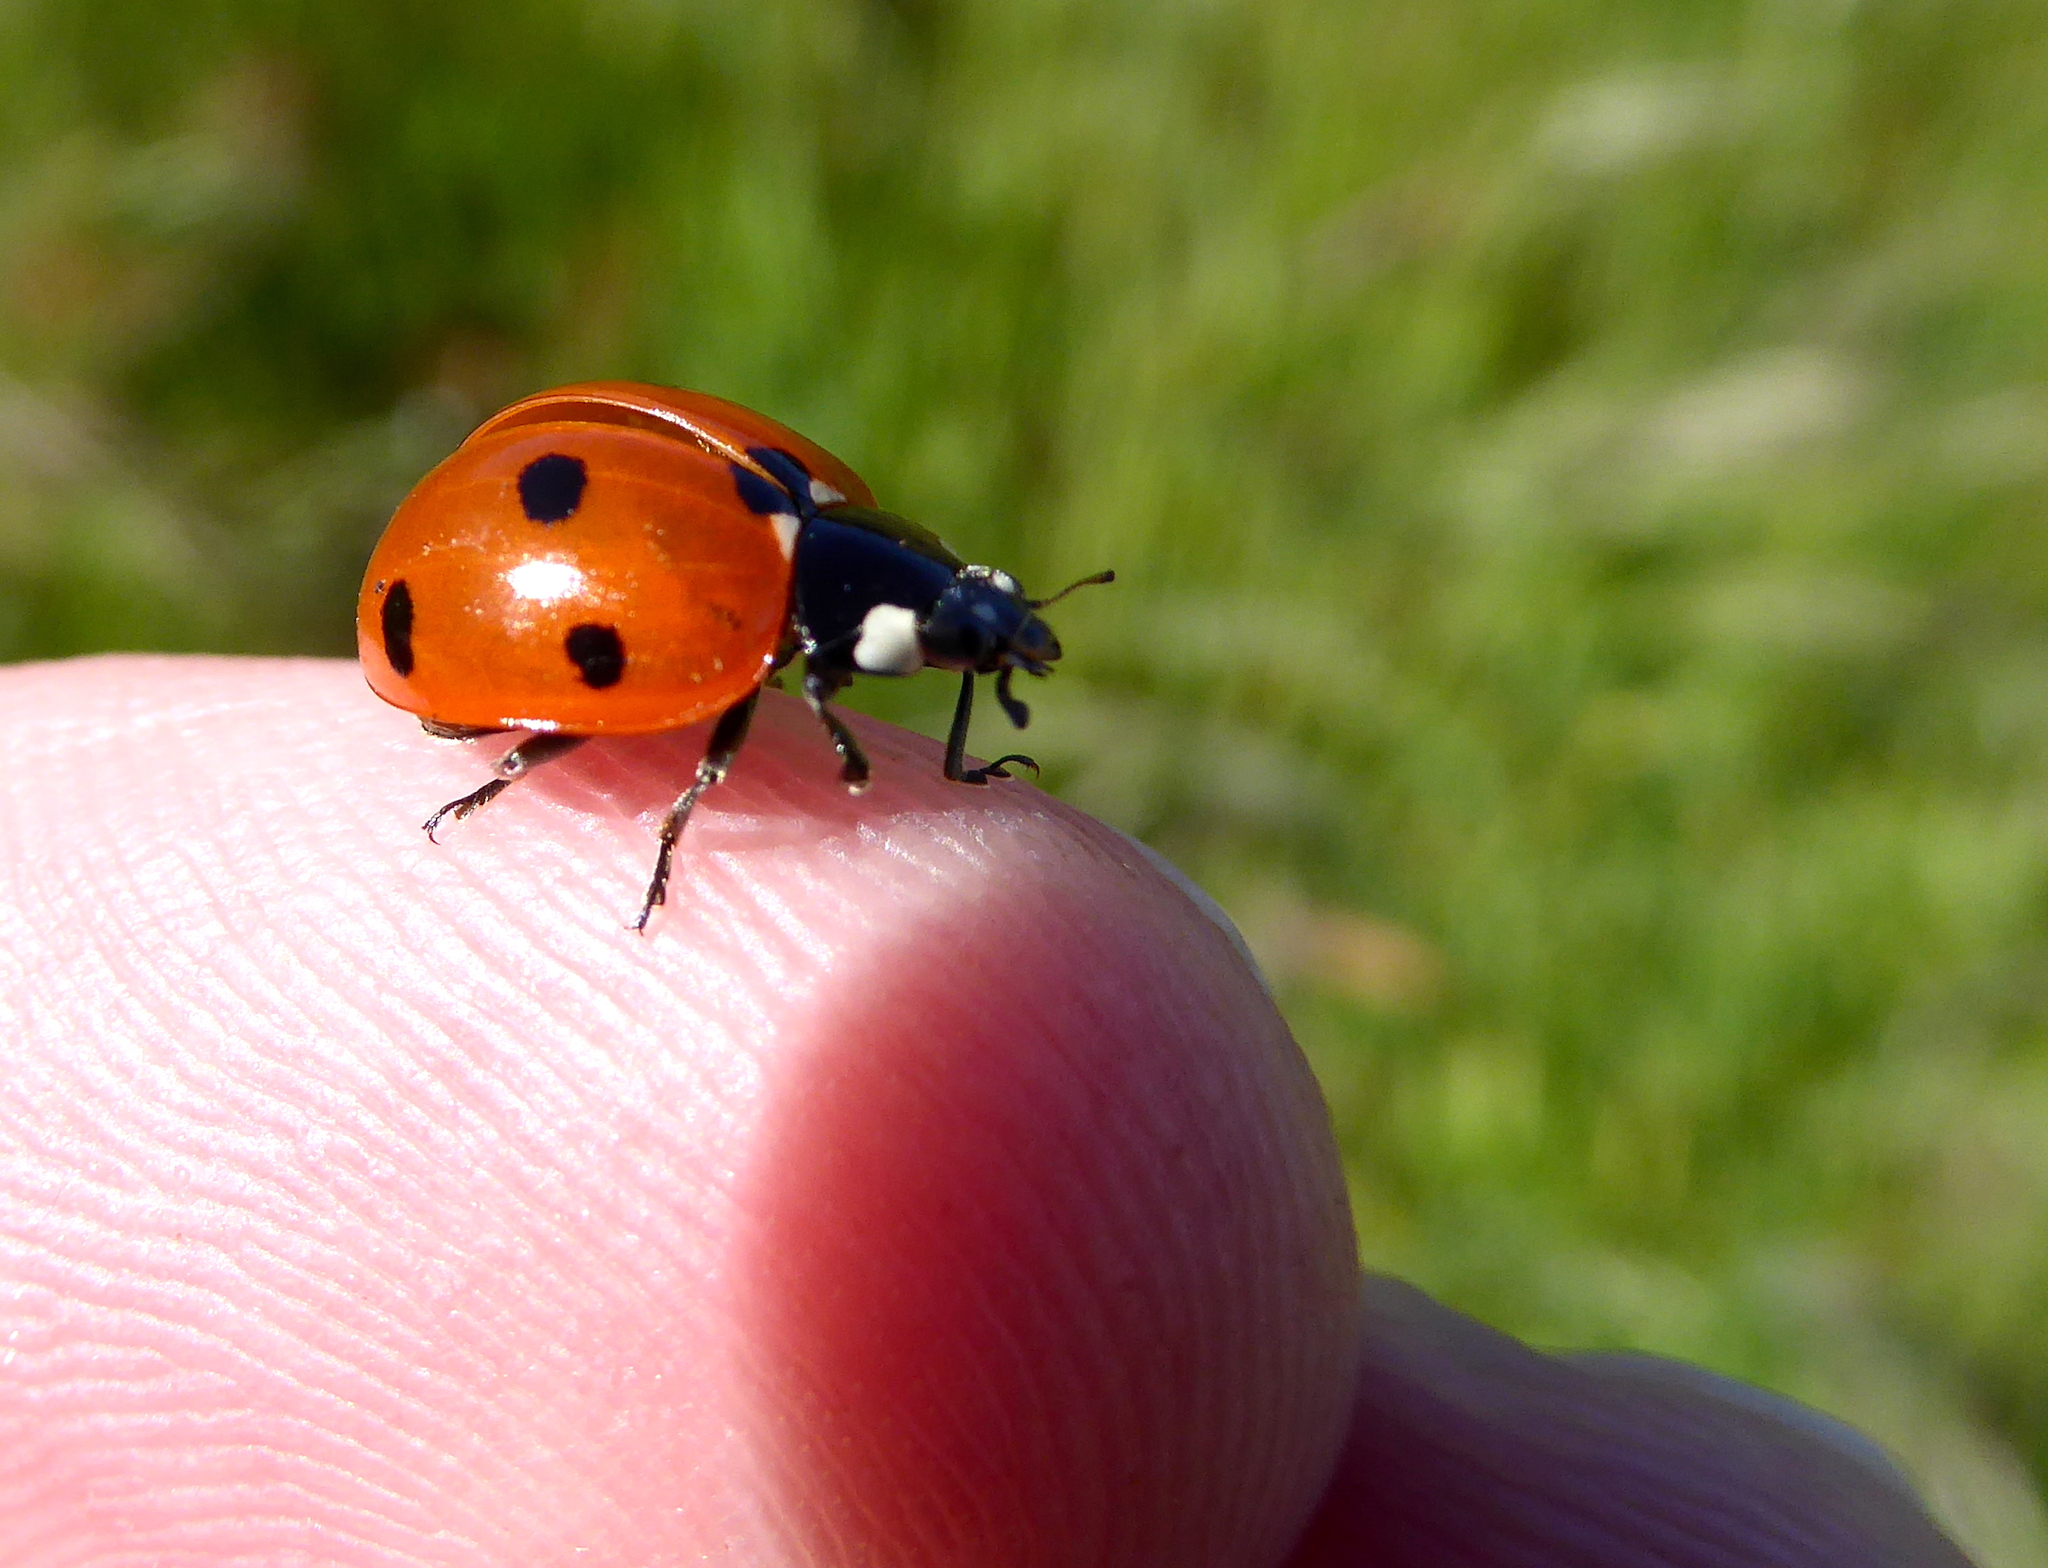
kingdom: Animalia
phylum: Arthropoda
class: Insecta
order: Coleoptera
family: Coccinellidae
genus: Coccinella
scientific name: Coccinella septempunctata
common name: Sevenspotted lady beetle
